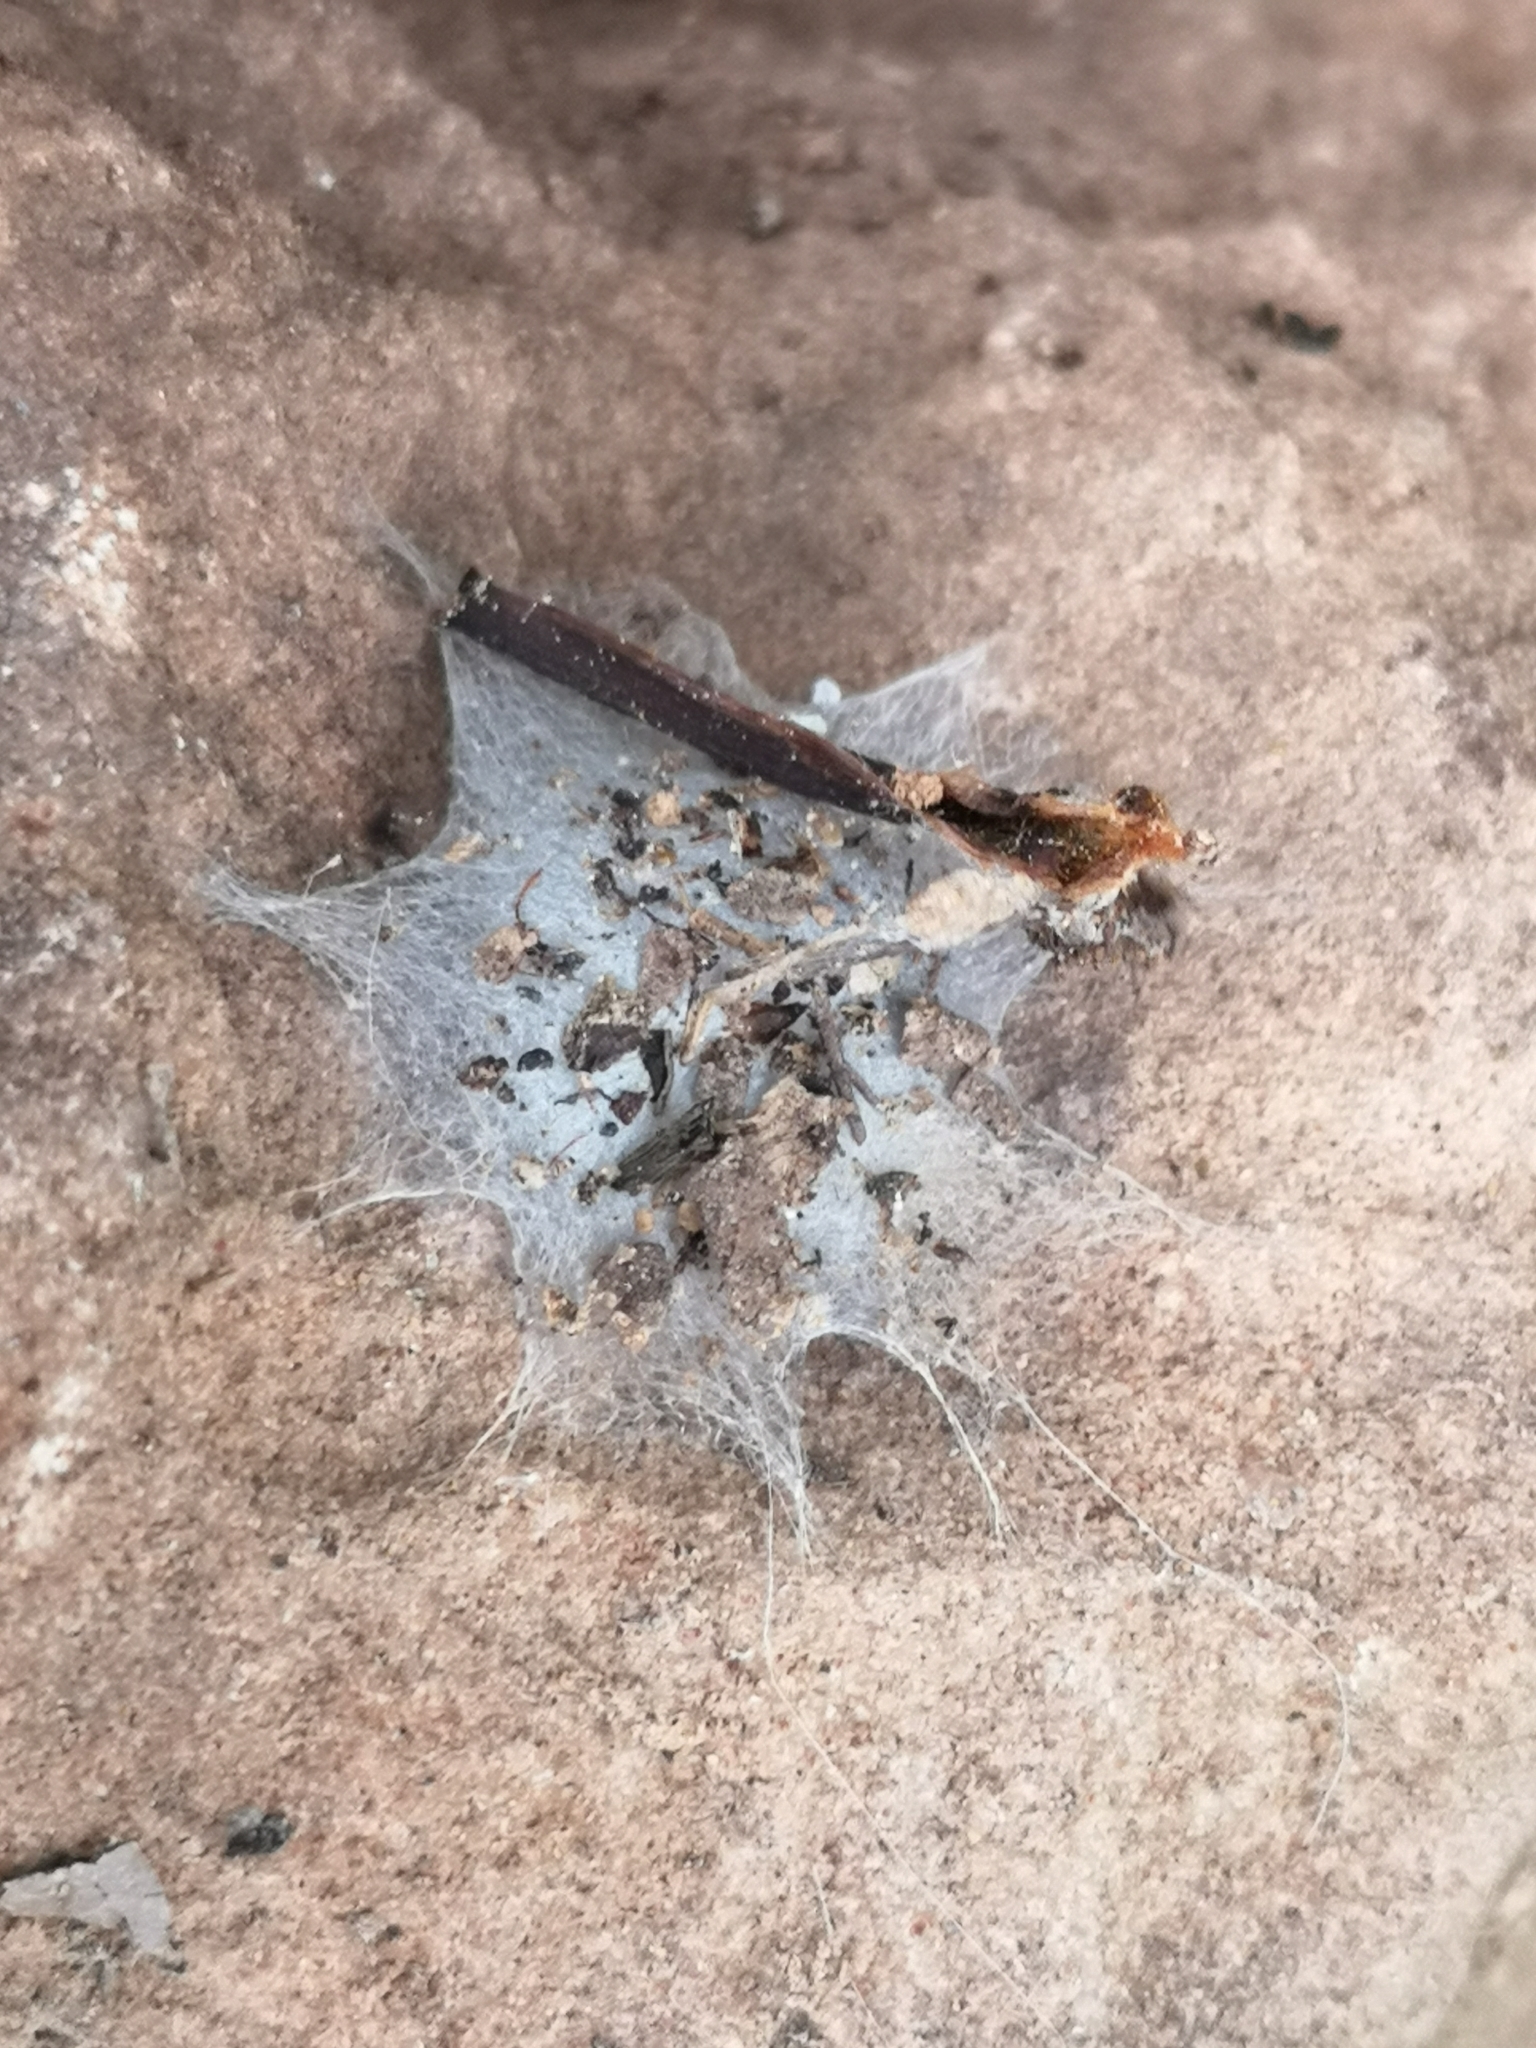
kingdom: Animalia
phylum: Arthropoda
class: Arachnida
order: Araneae
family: Oecobiidae
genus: Uroctea
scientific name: Uroctea durandi
